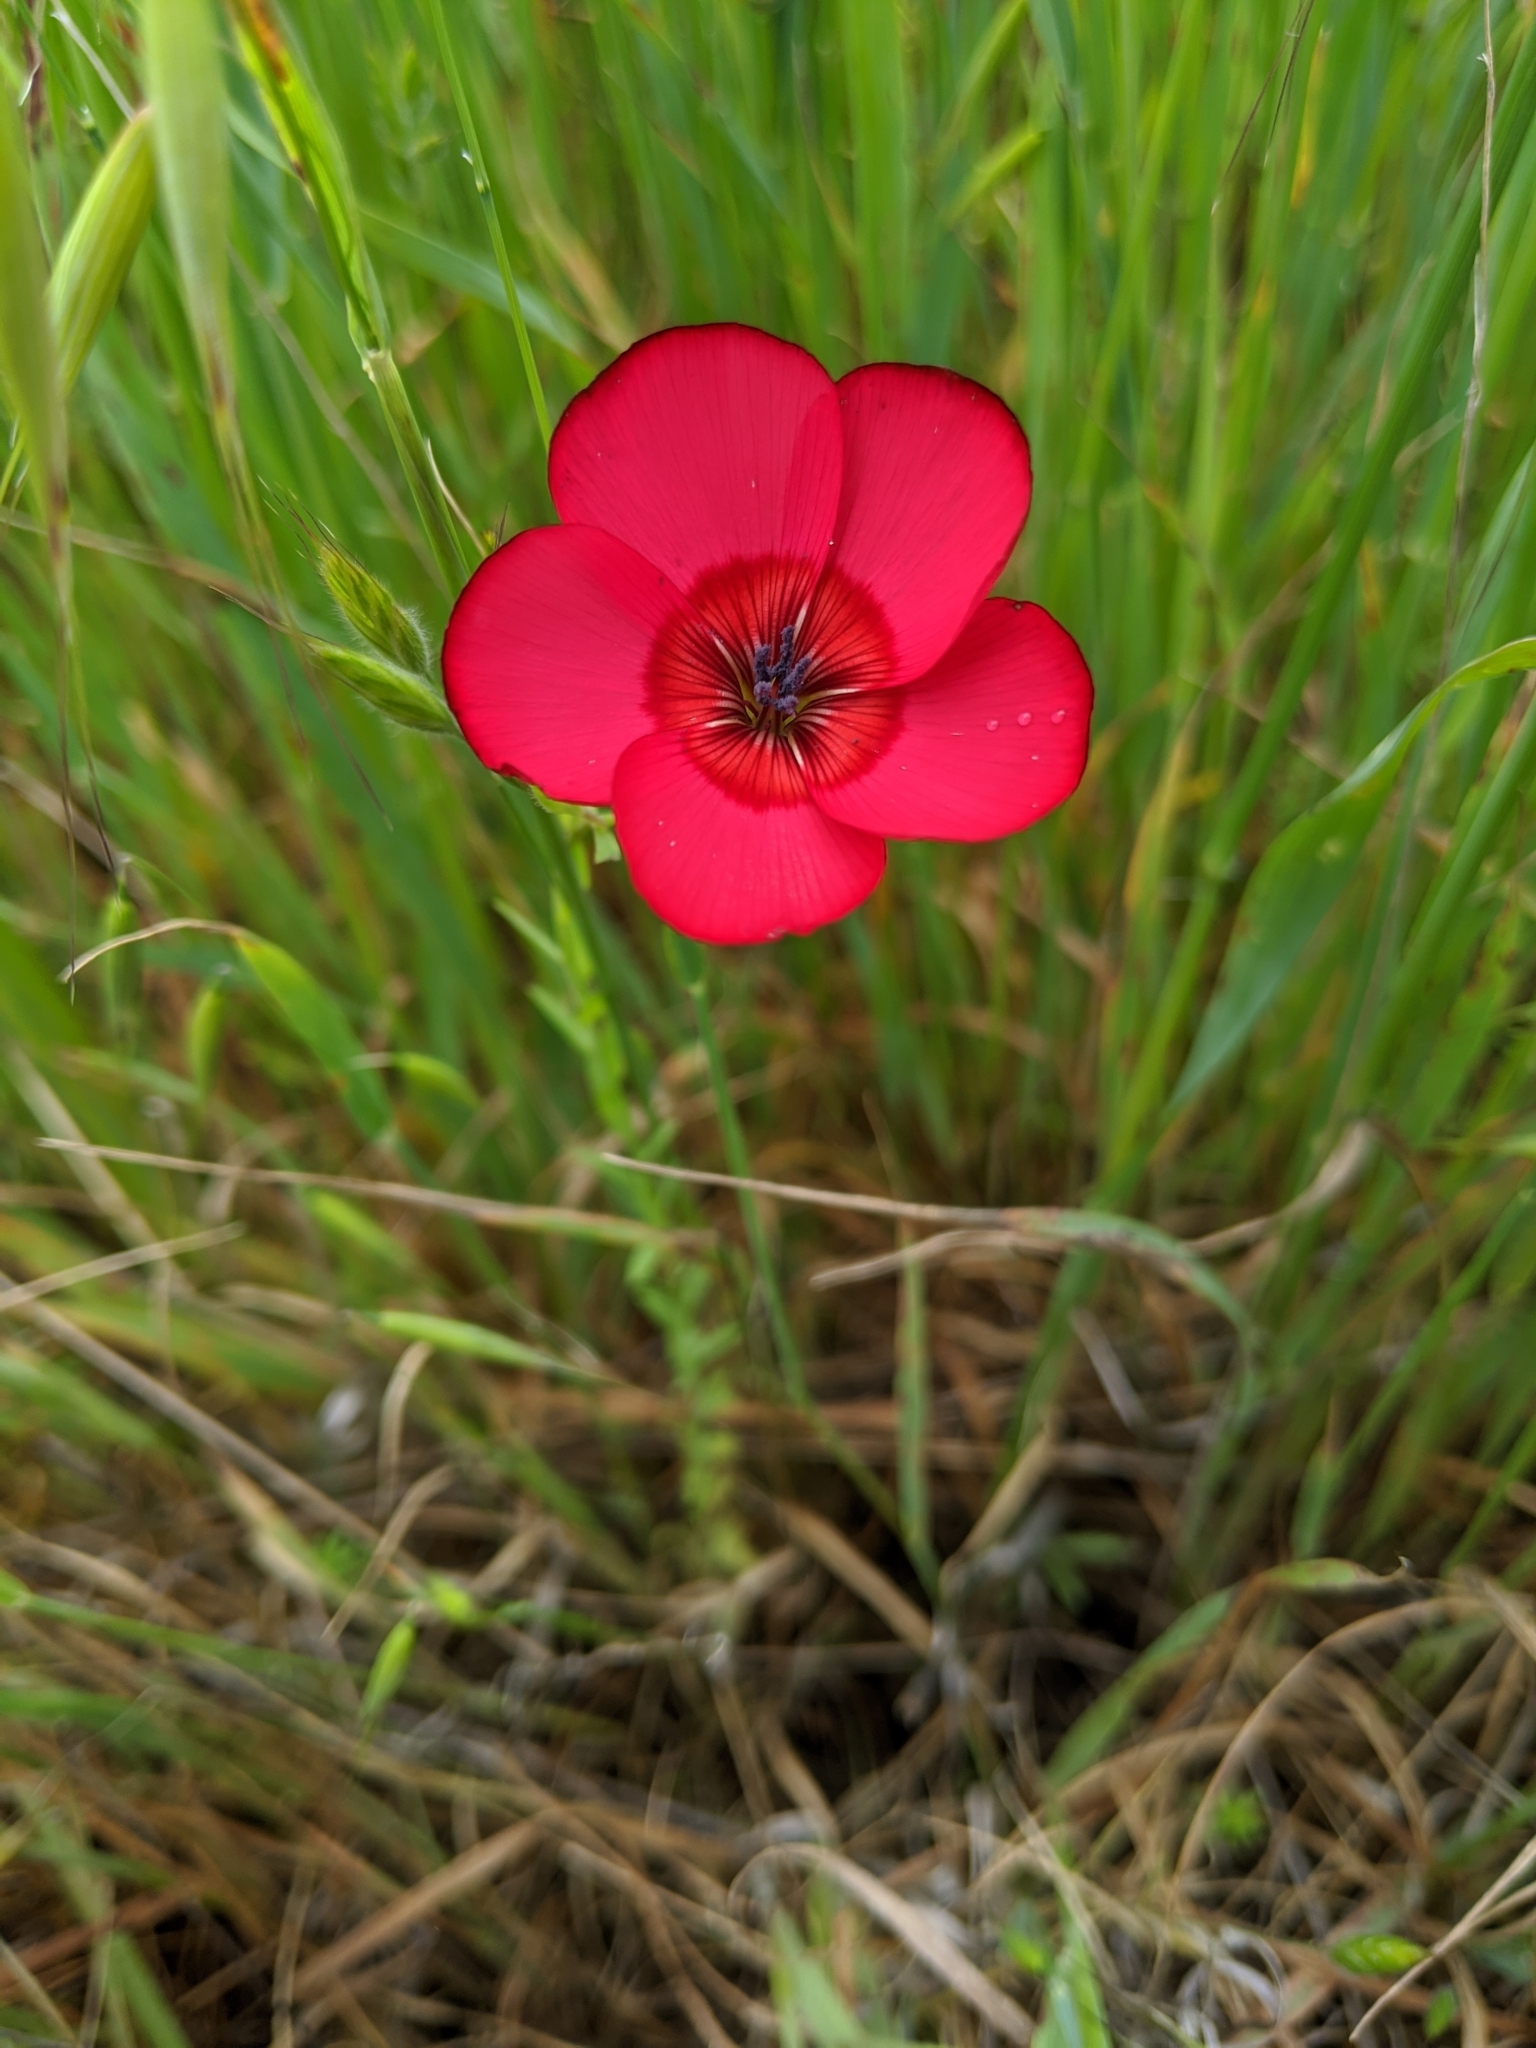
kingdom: Plantae
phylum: Tracheophyta
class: Magnoliopsida
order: Malpighiales
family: Linaceae
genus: Linum
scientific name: Linum grandiflorum
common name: Crimson flax
